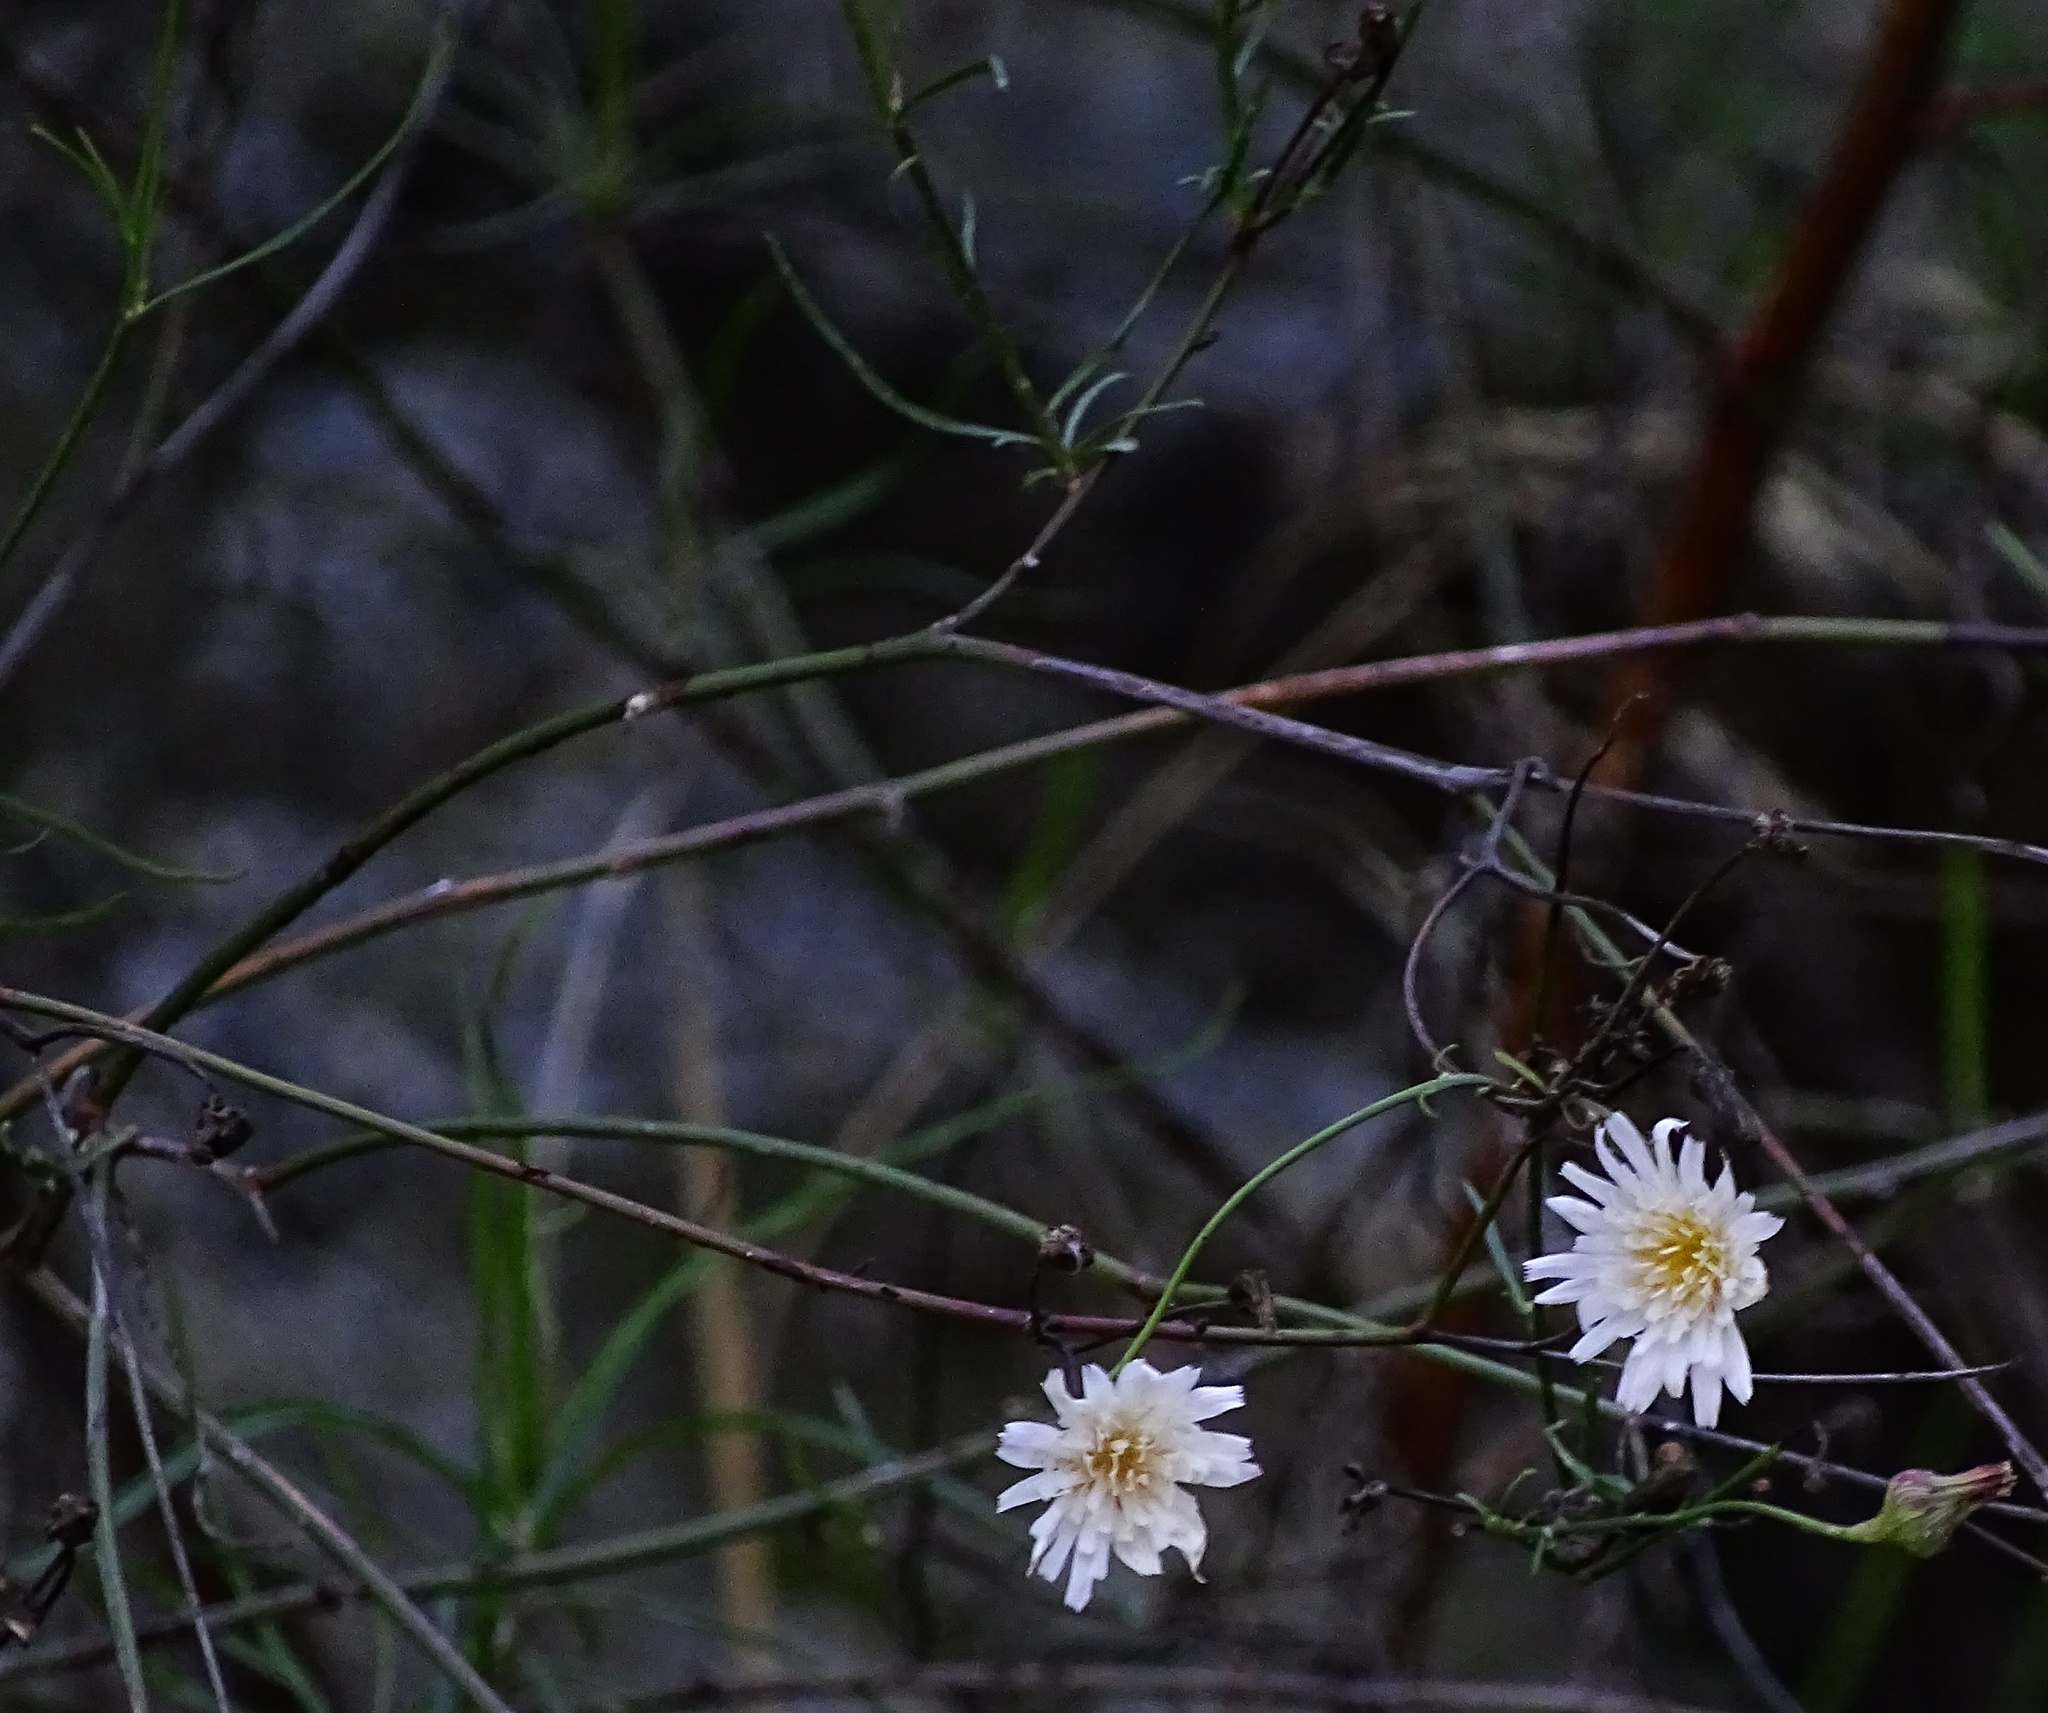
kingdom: Plantae
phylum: Tracheophyta
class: Magnoliopsida
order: Asterales
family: Asteraceae
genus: Malacothrix
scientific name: Malacothrix saxatilis
